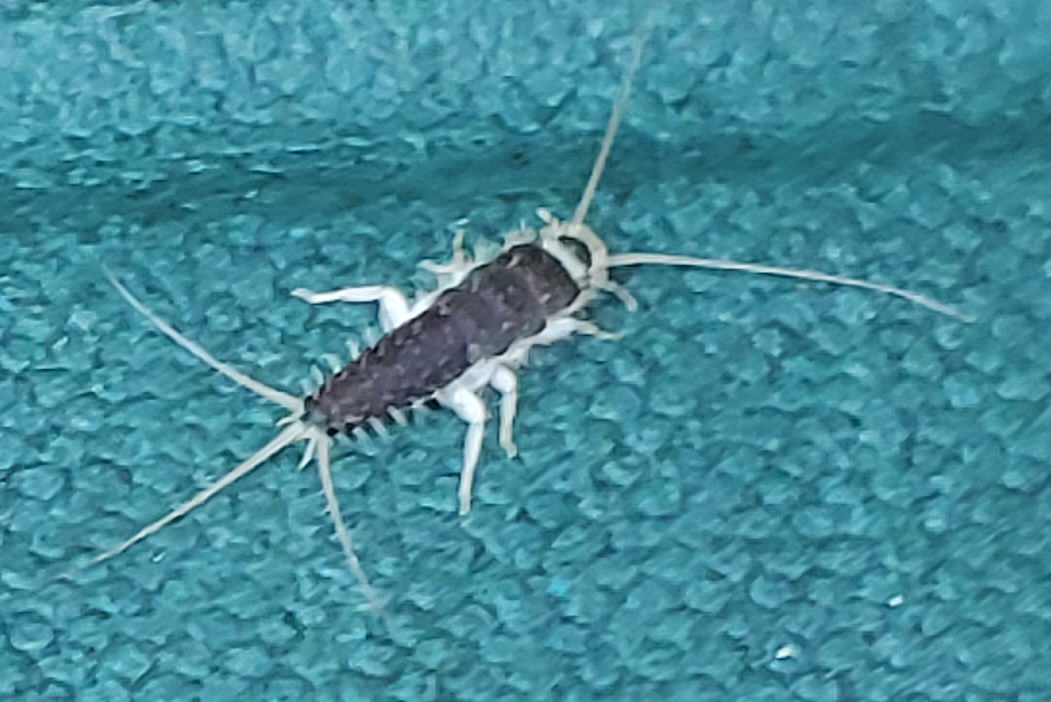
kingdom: Animalia
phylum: Arthropoda
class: Insecta
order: Zygentoma
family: Lepismatidae
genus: Ctenolepisma
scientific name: Ctenolepisma longicaudatum
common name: Silverfish
